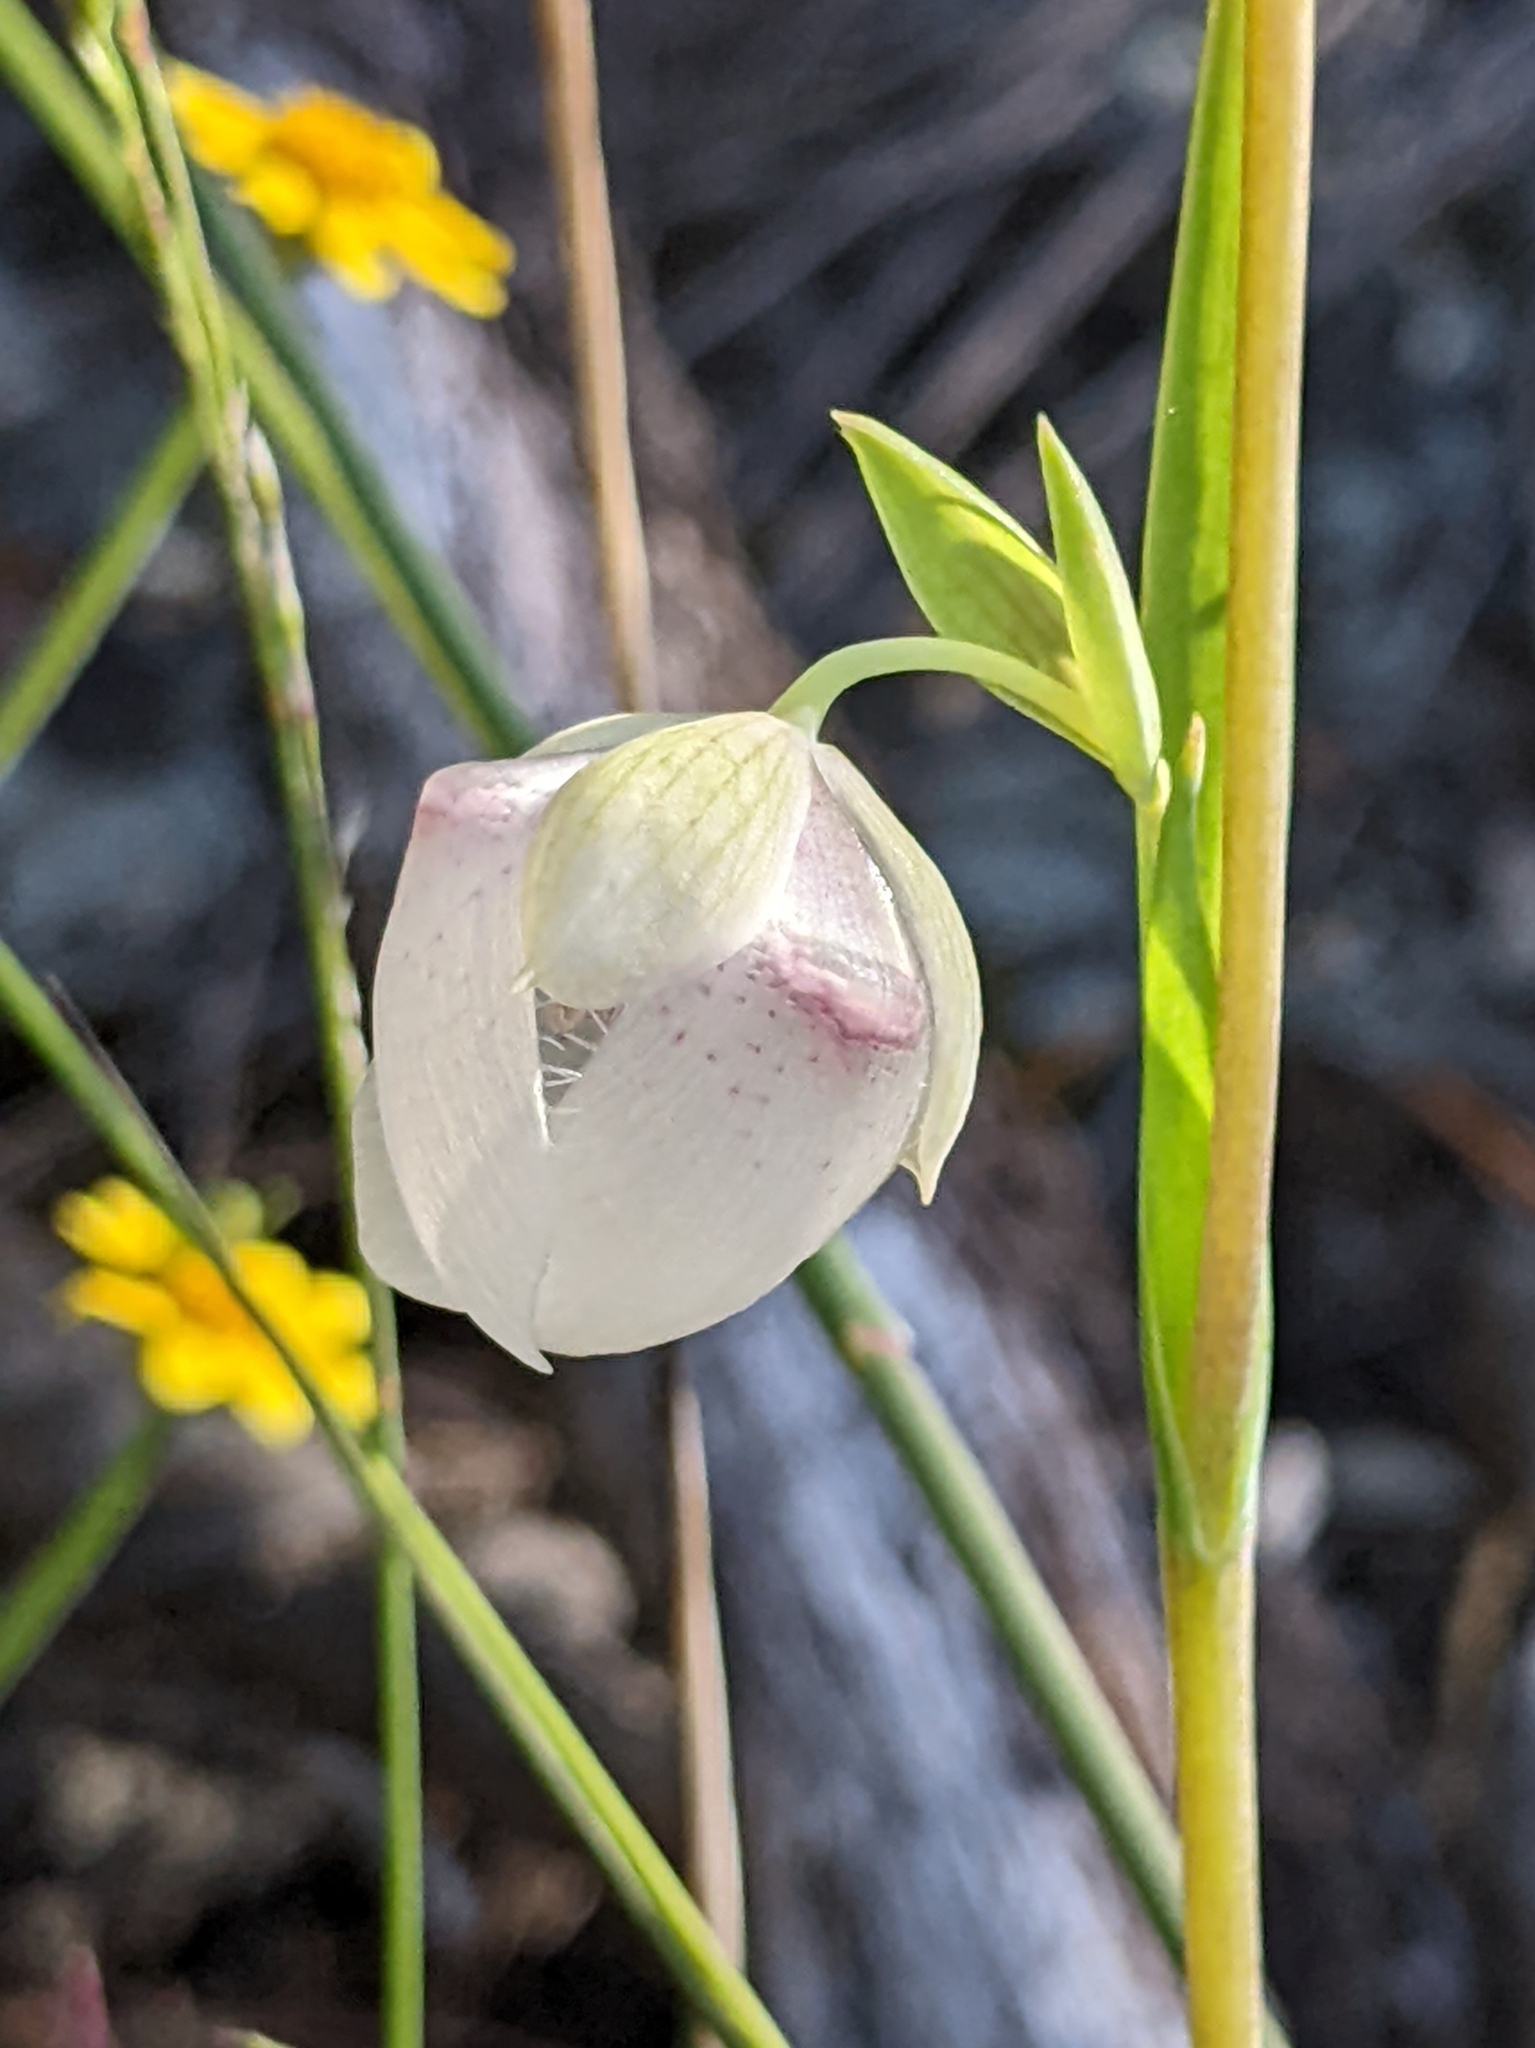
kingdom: Plantae
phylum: Tracheophyta
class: Liliopsida
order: Liliales
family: Liliaceae
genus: Calochortus
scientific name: Calochortus albus
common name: Fairy-lantern
